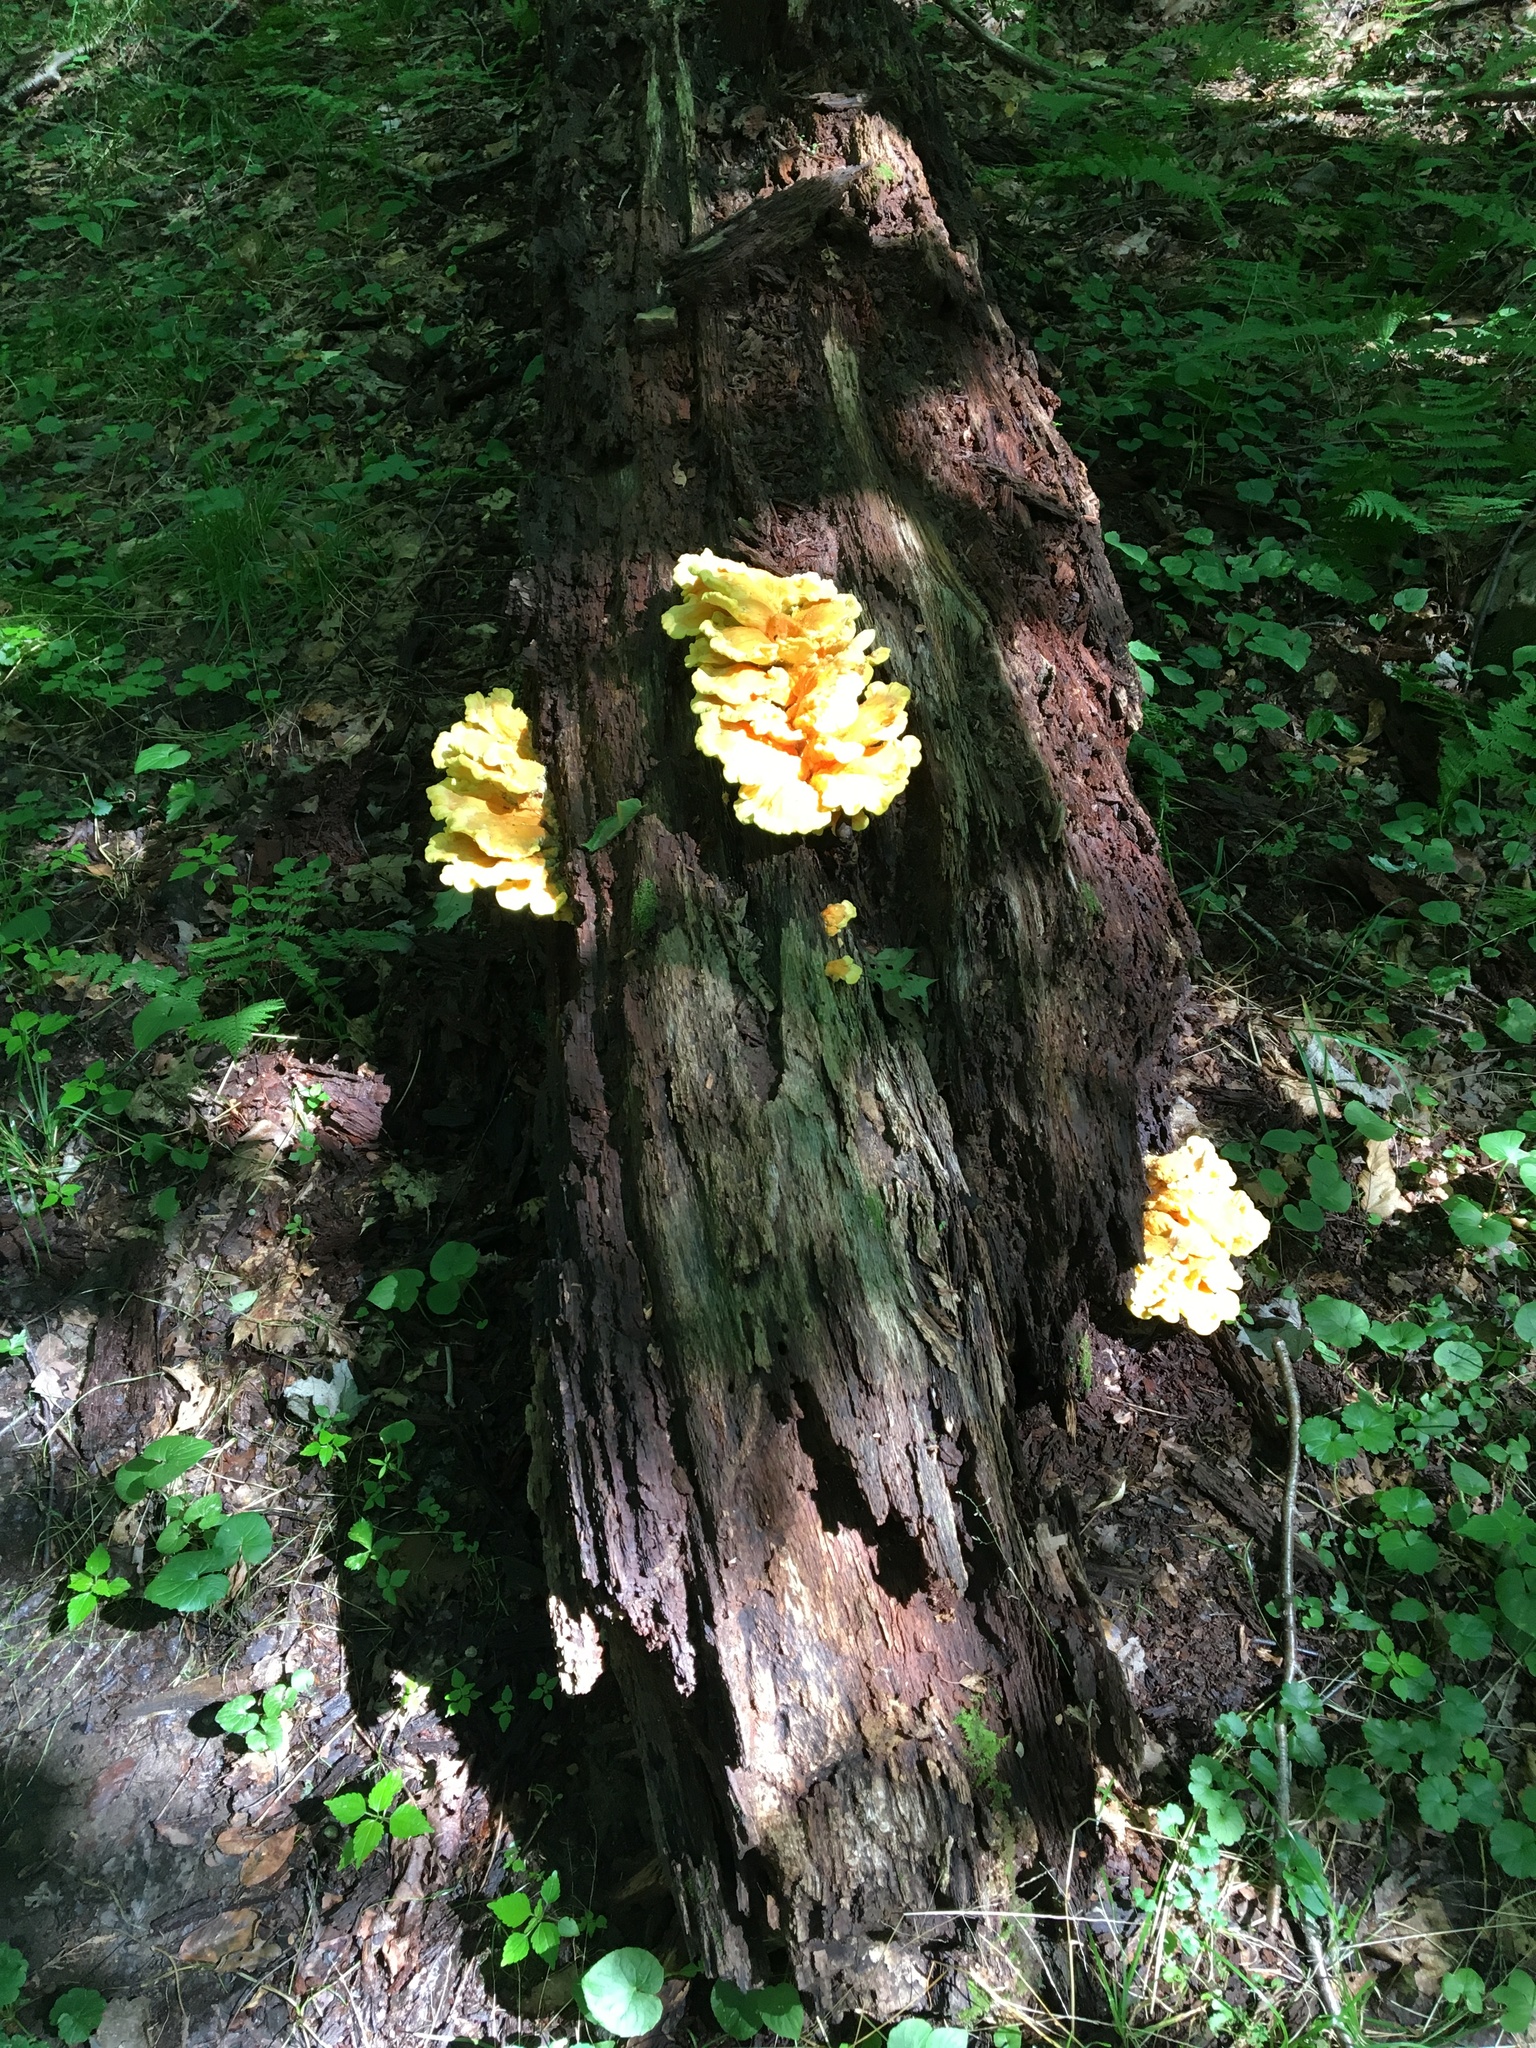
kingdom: Fungi
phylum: Basidiomycota
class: Agaricomycetes
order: Polyporales
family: Laetiporaceae
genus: Laetiporus
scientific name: Laetiporus sulphureus
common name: Chicken of the woods
